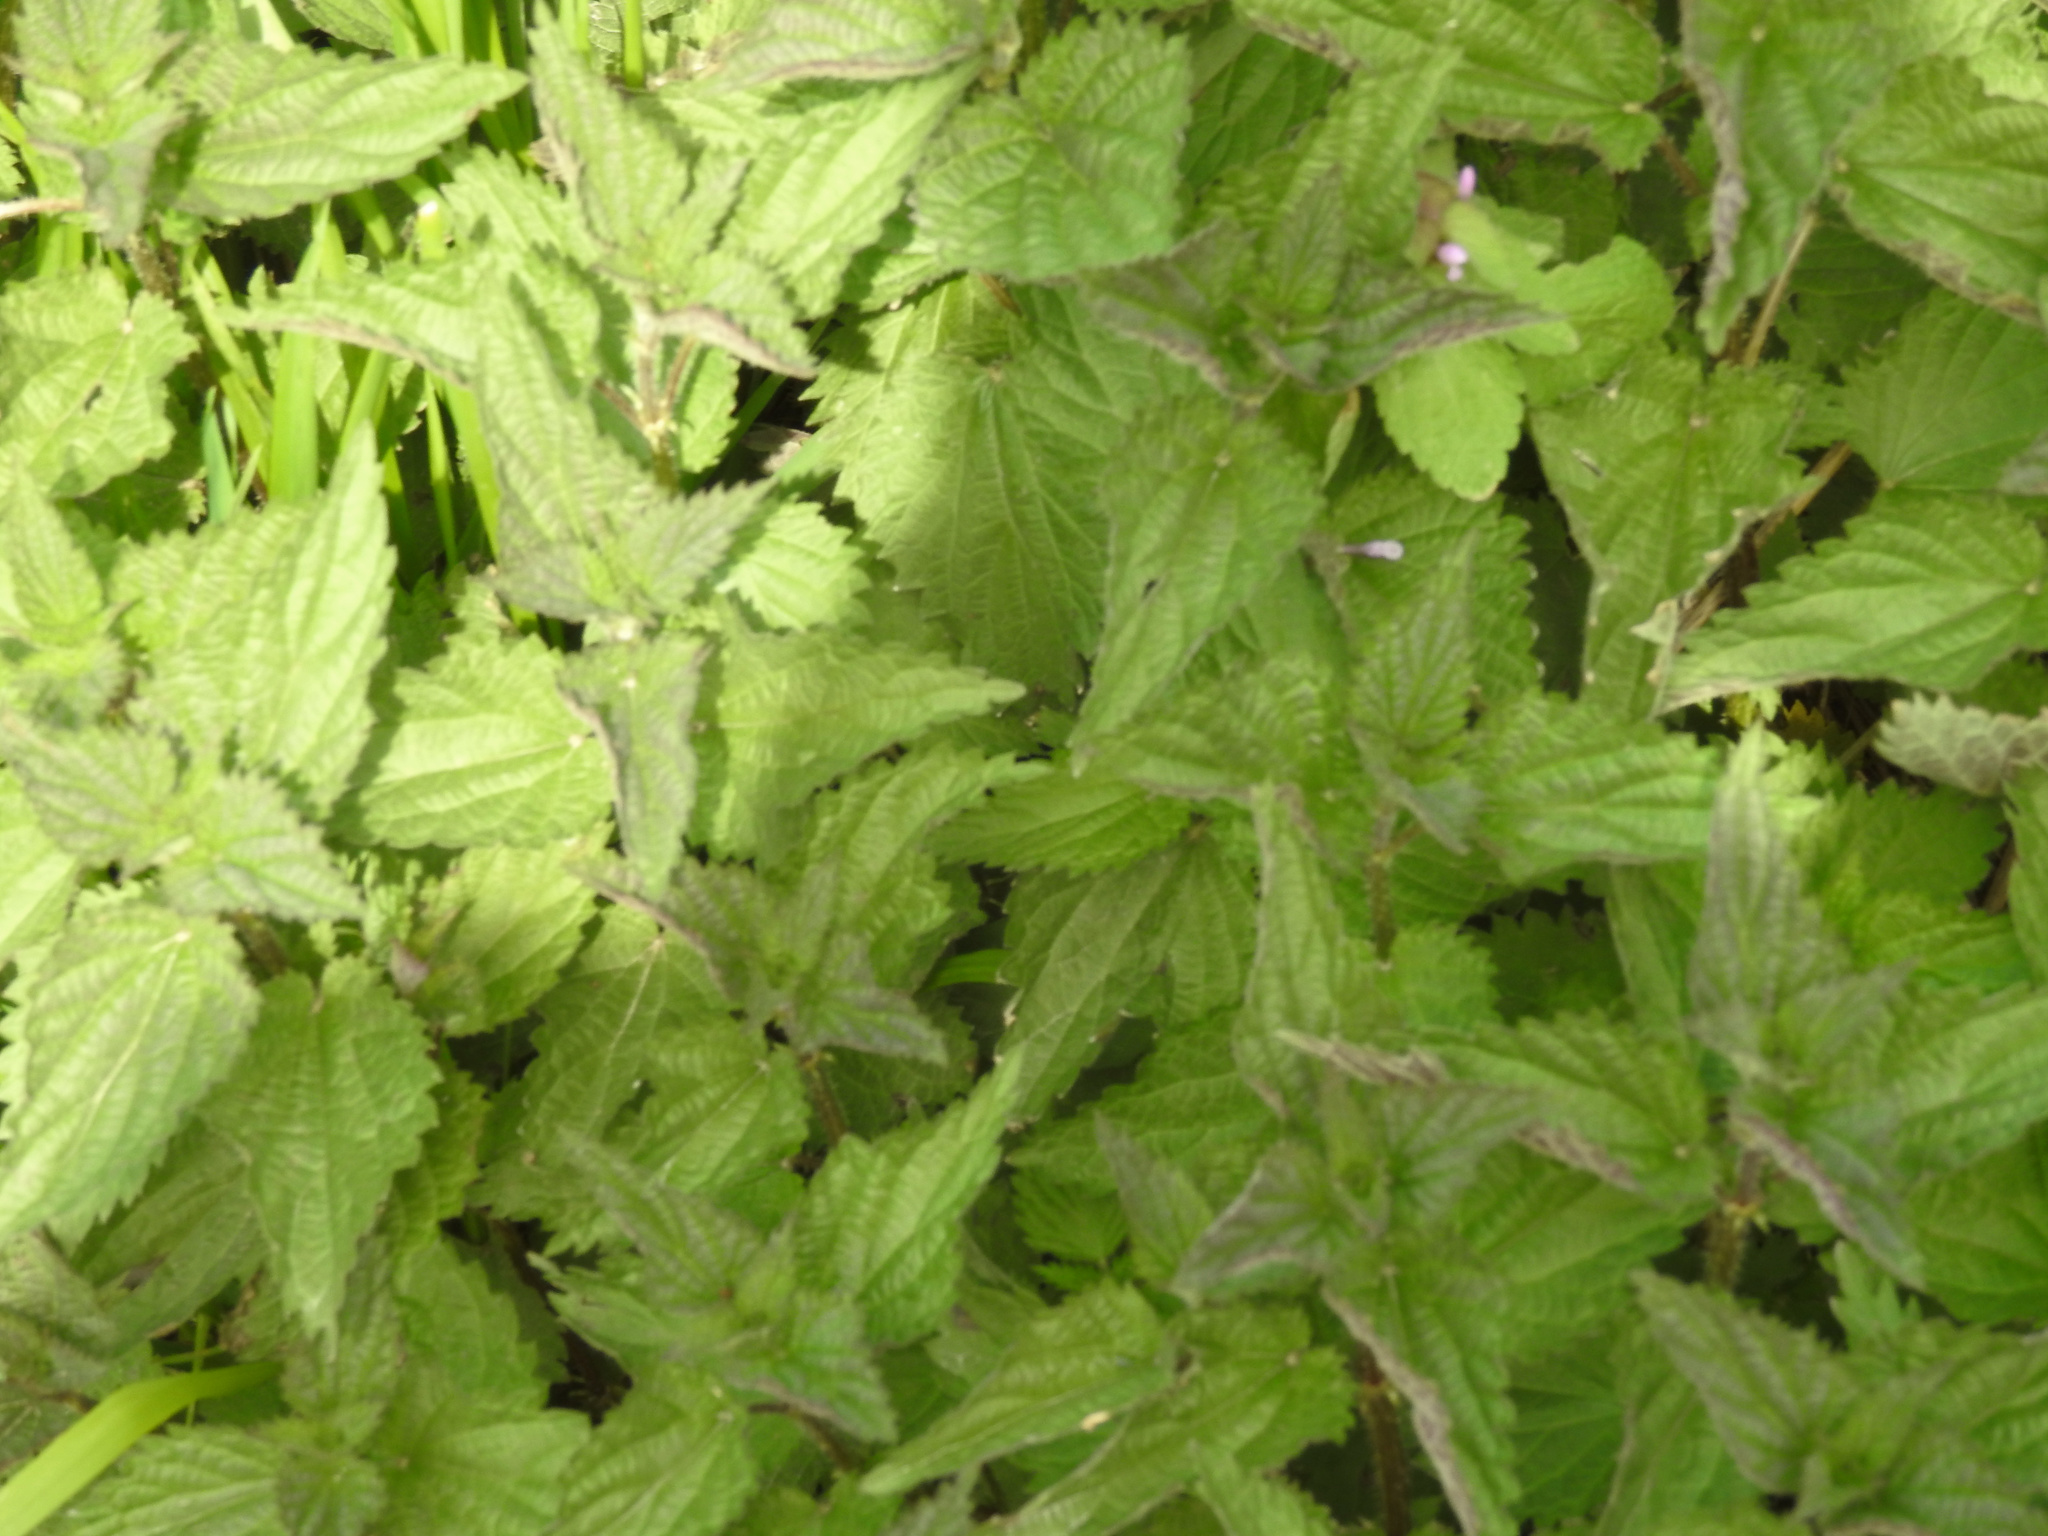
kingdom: Plantae
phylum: Tracheophyta
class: Magnoliopsida
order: Rosales
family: Urticaceae
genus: Urtica
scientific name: Urtica dioica
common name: Common nettle
